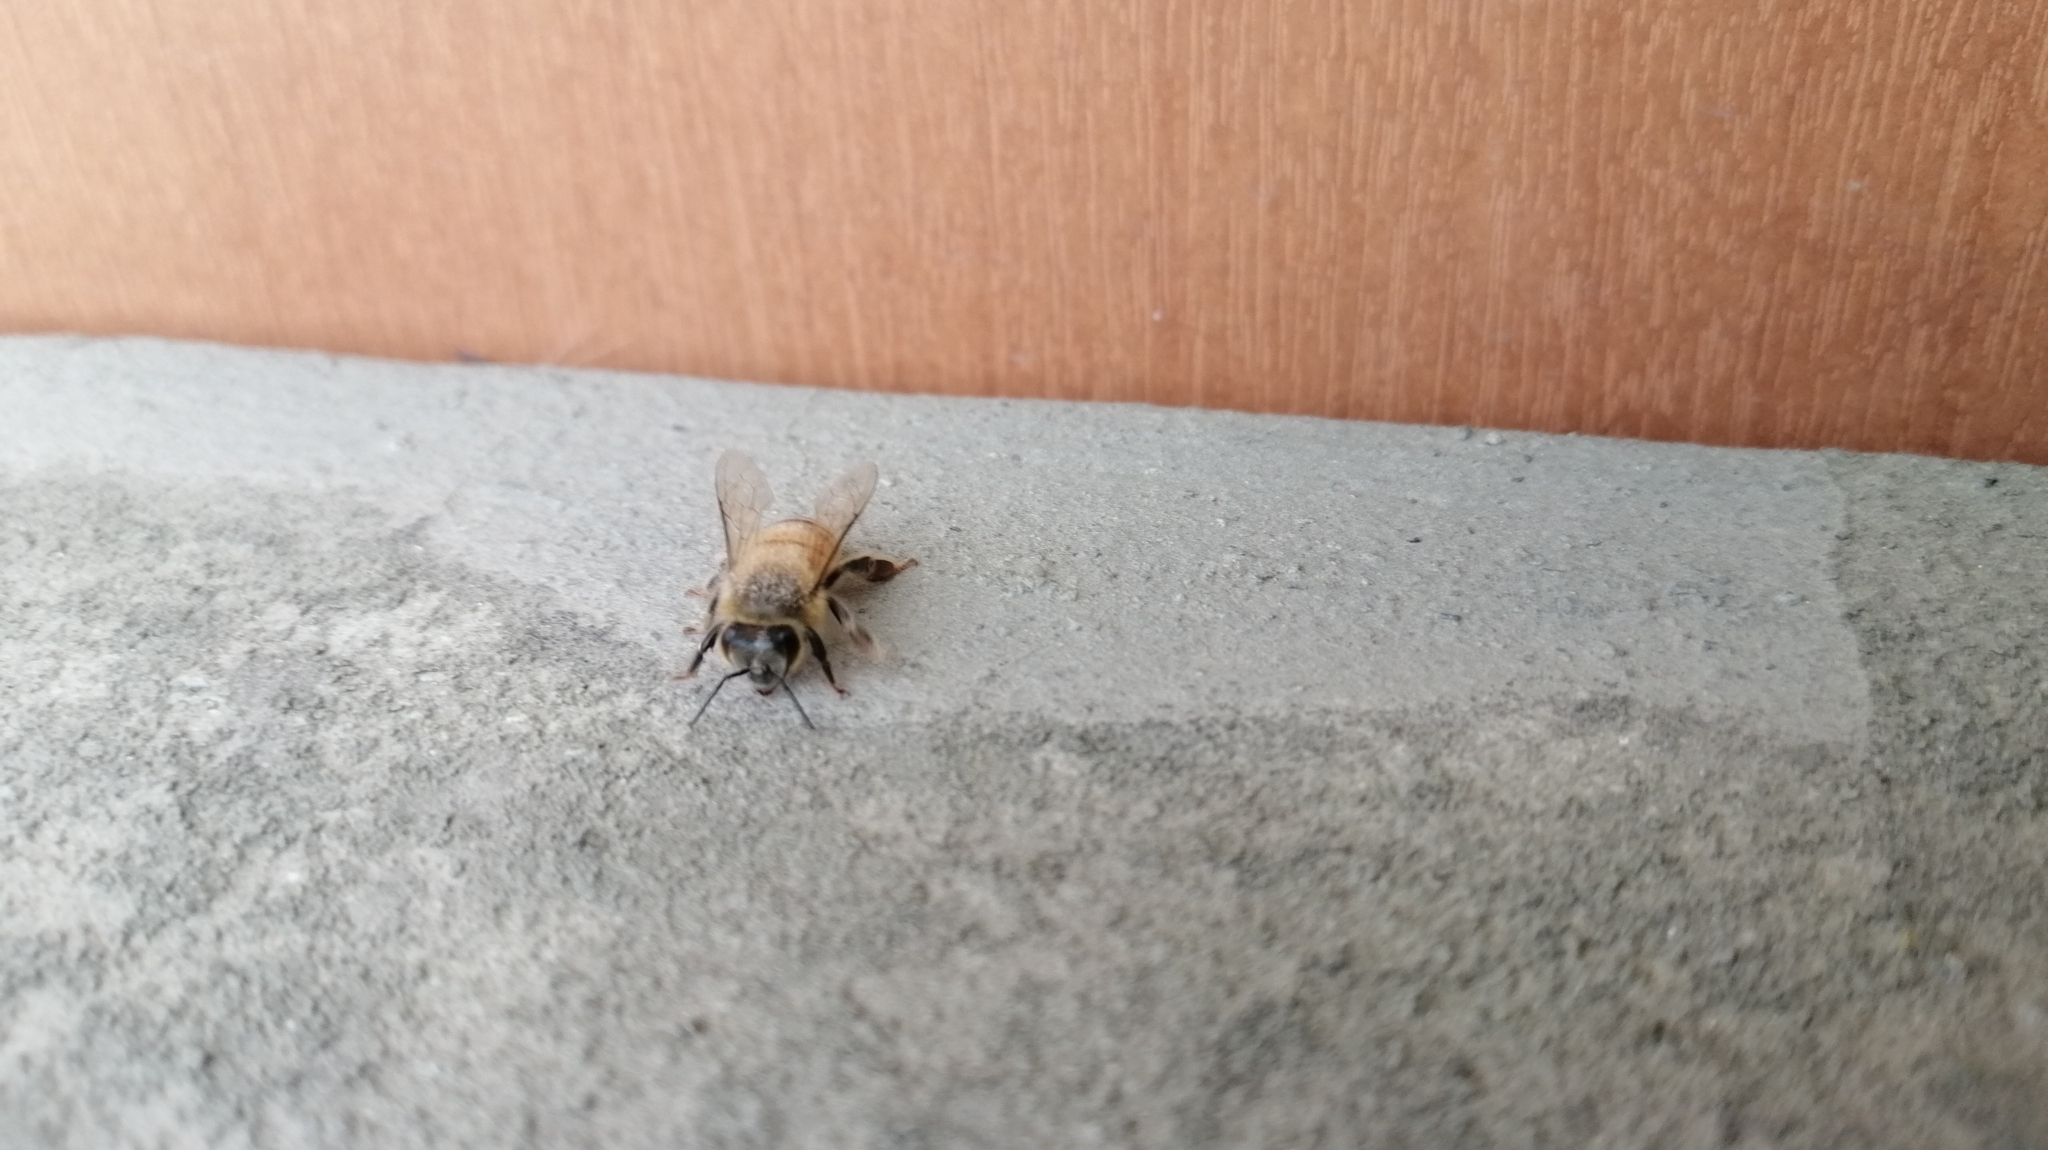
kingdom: Animalia
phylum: Arthropoda
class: Insecta
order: Hymenoptera
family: Apidae
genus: Apis
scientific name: Apis mellifera
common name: Honey bee
